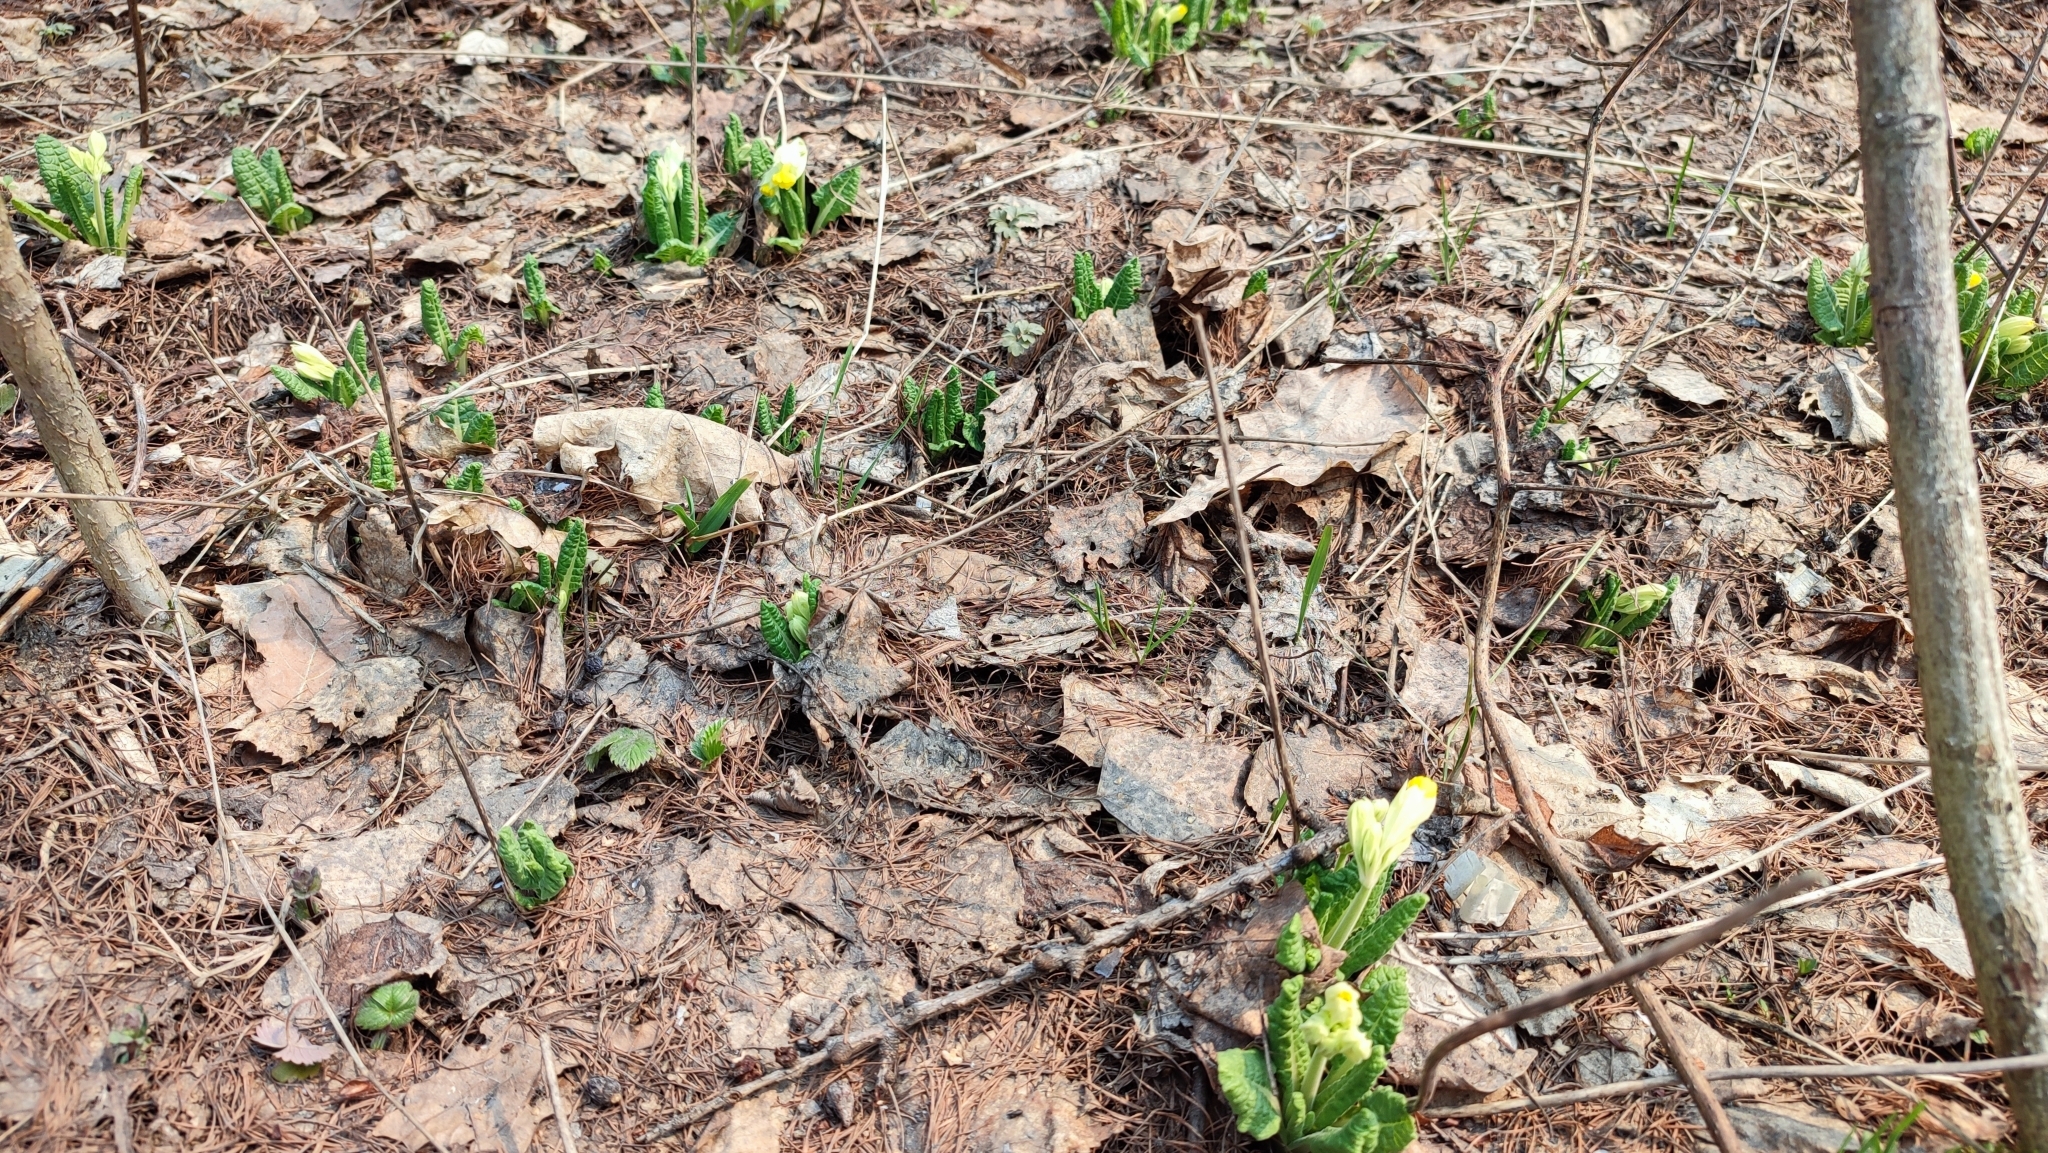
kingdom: Plantae
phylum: Tracheophyta
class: Magnoliopsida
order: Ericales
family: Primulaceae
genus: Primula
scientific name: Primula veris
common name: Cowslip
